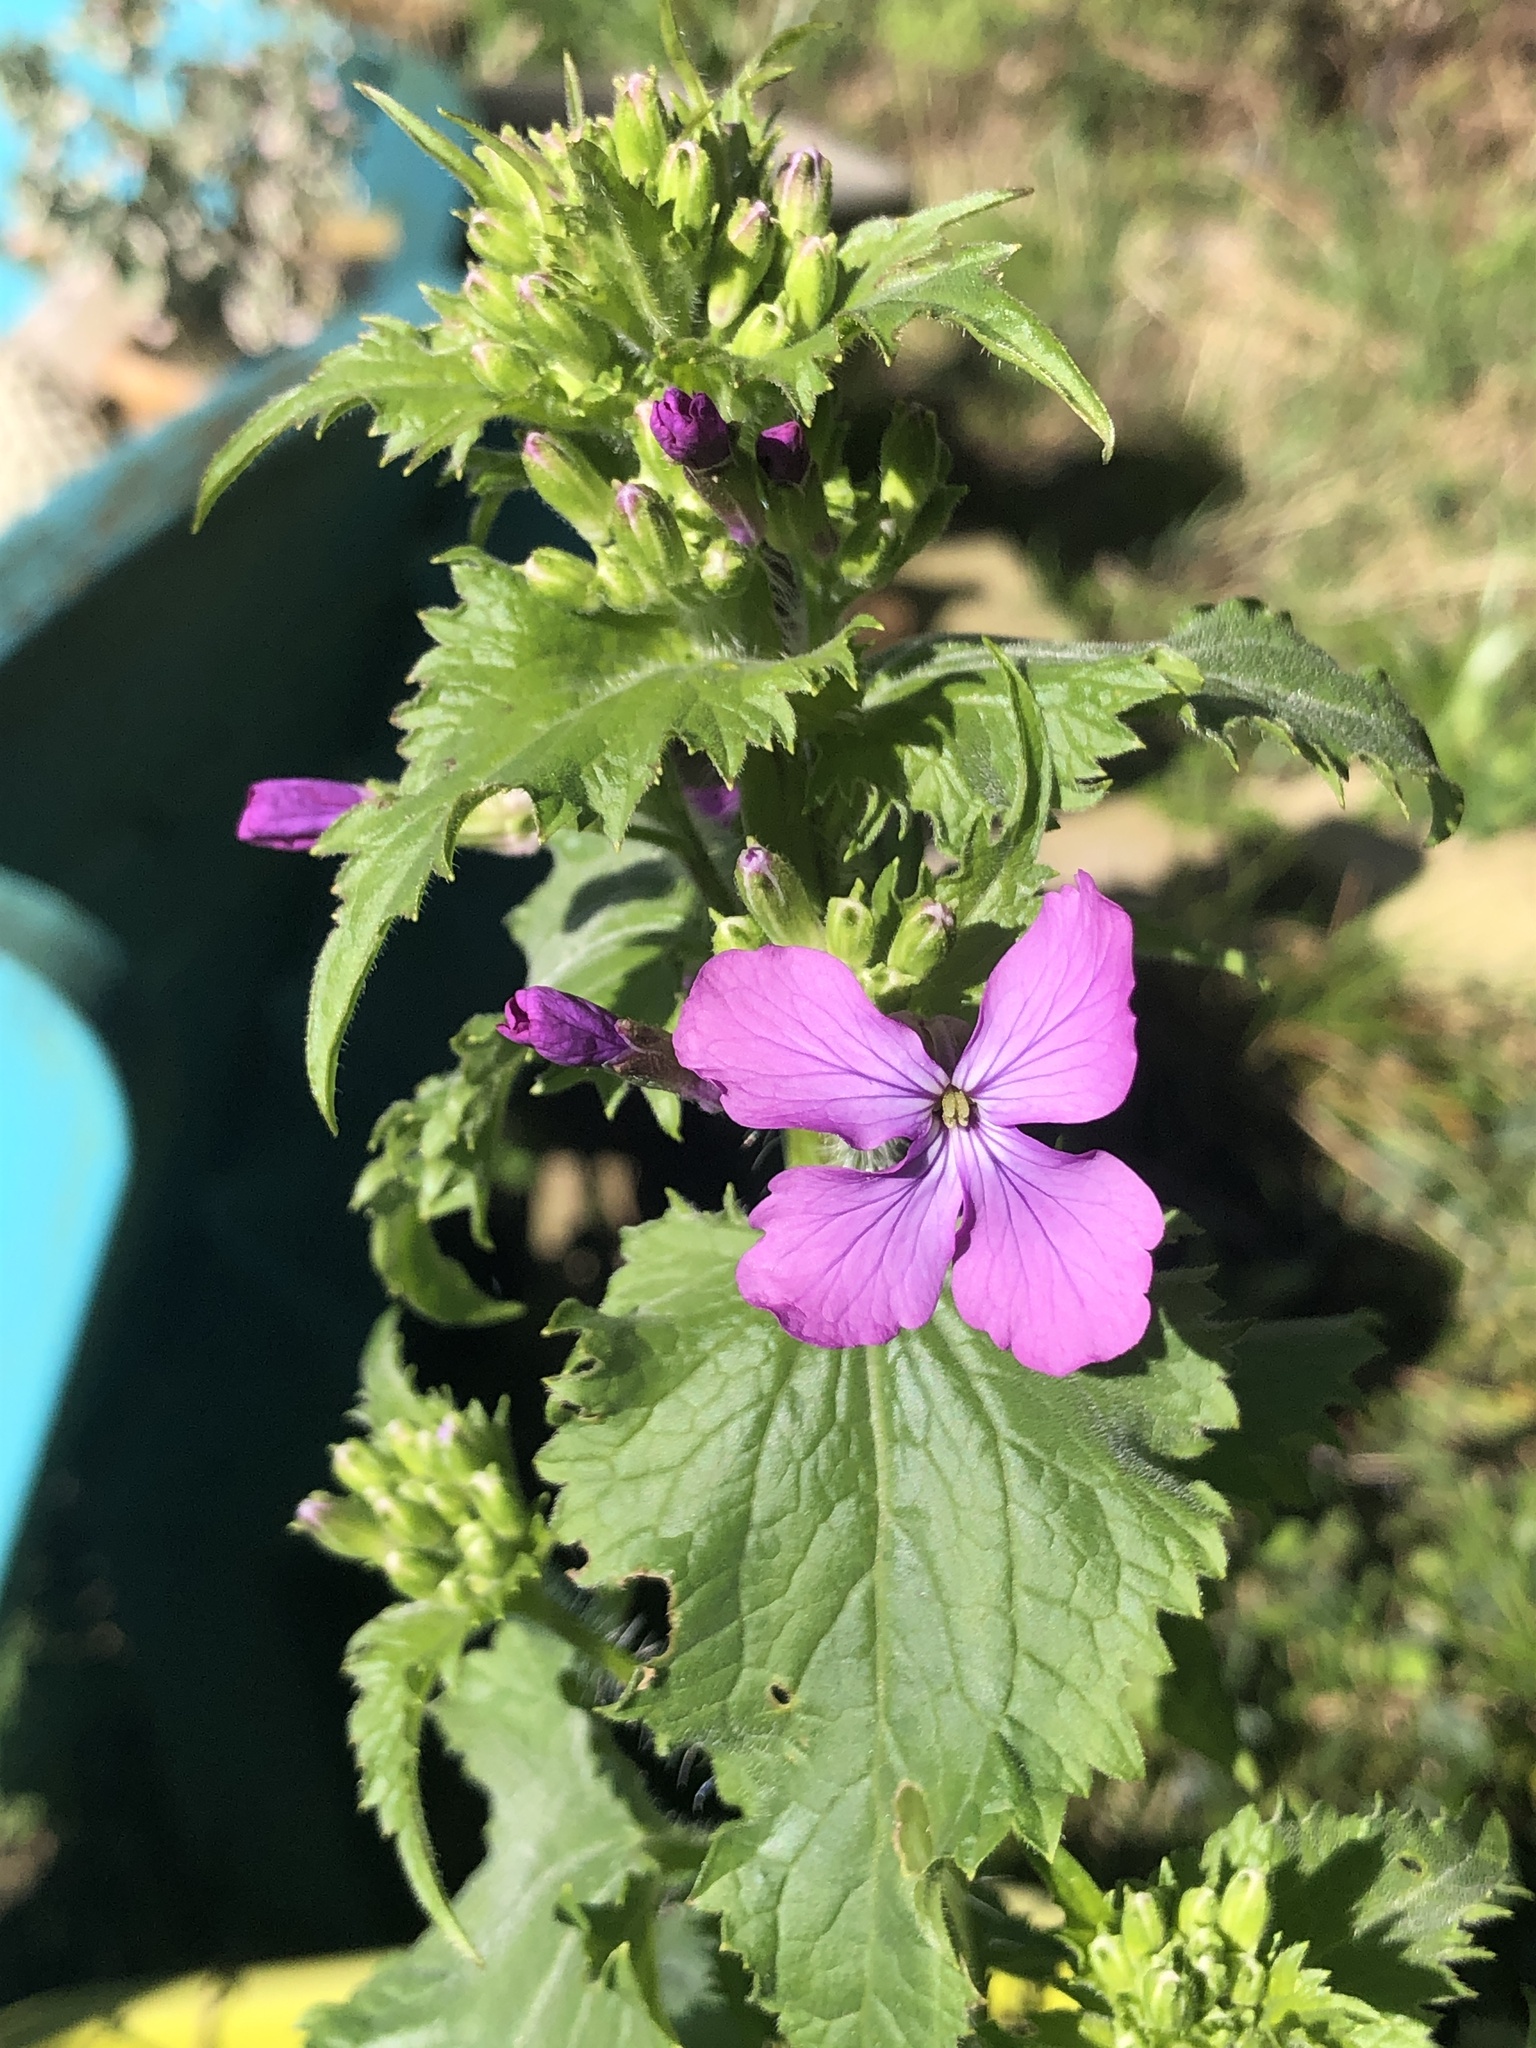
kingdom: Plantae
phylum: Tracheophyta
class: Magnoliopsida
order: Brassicales
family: Brassicaceae
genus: Lunaria
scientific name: Lunaria annua
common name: Honesty
